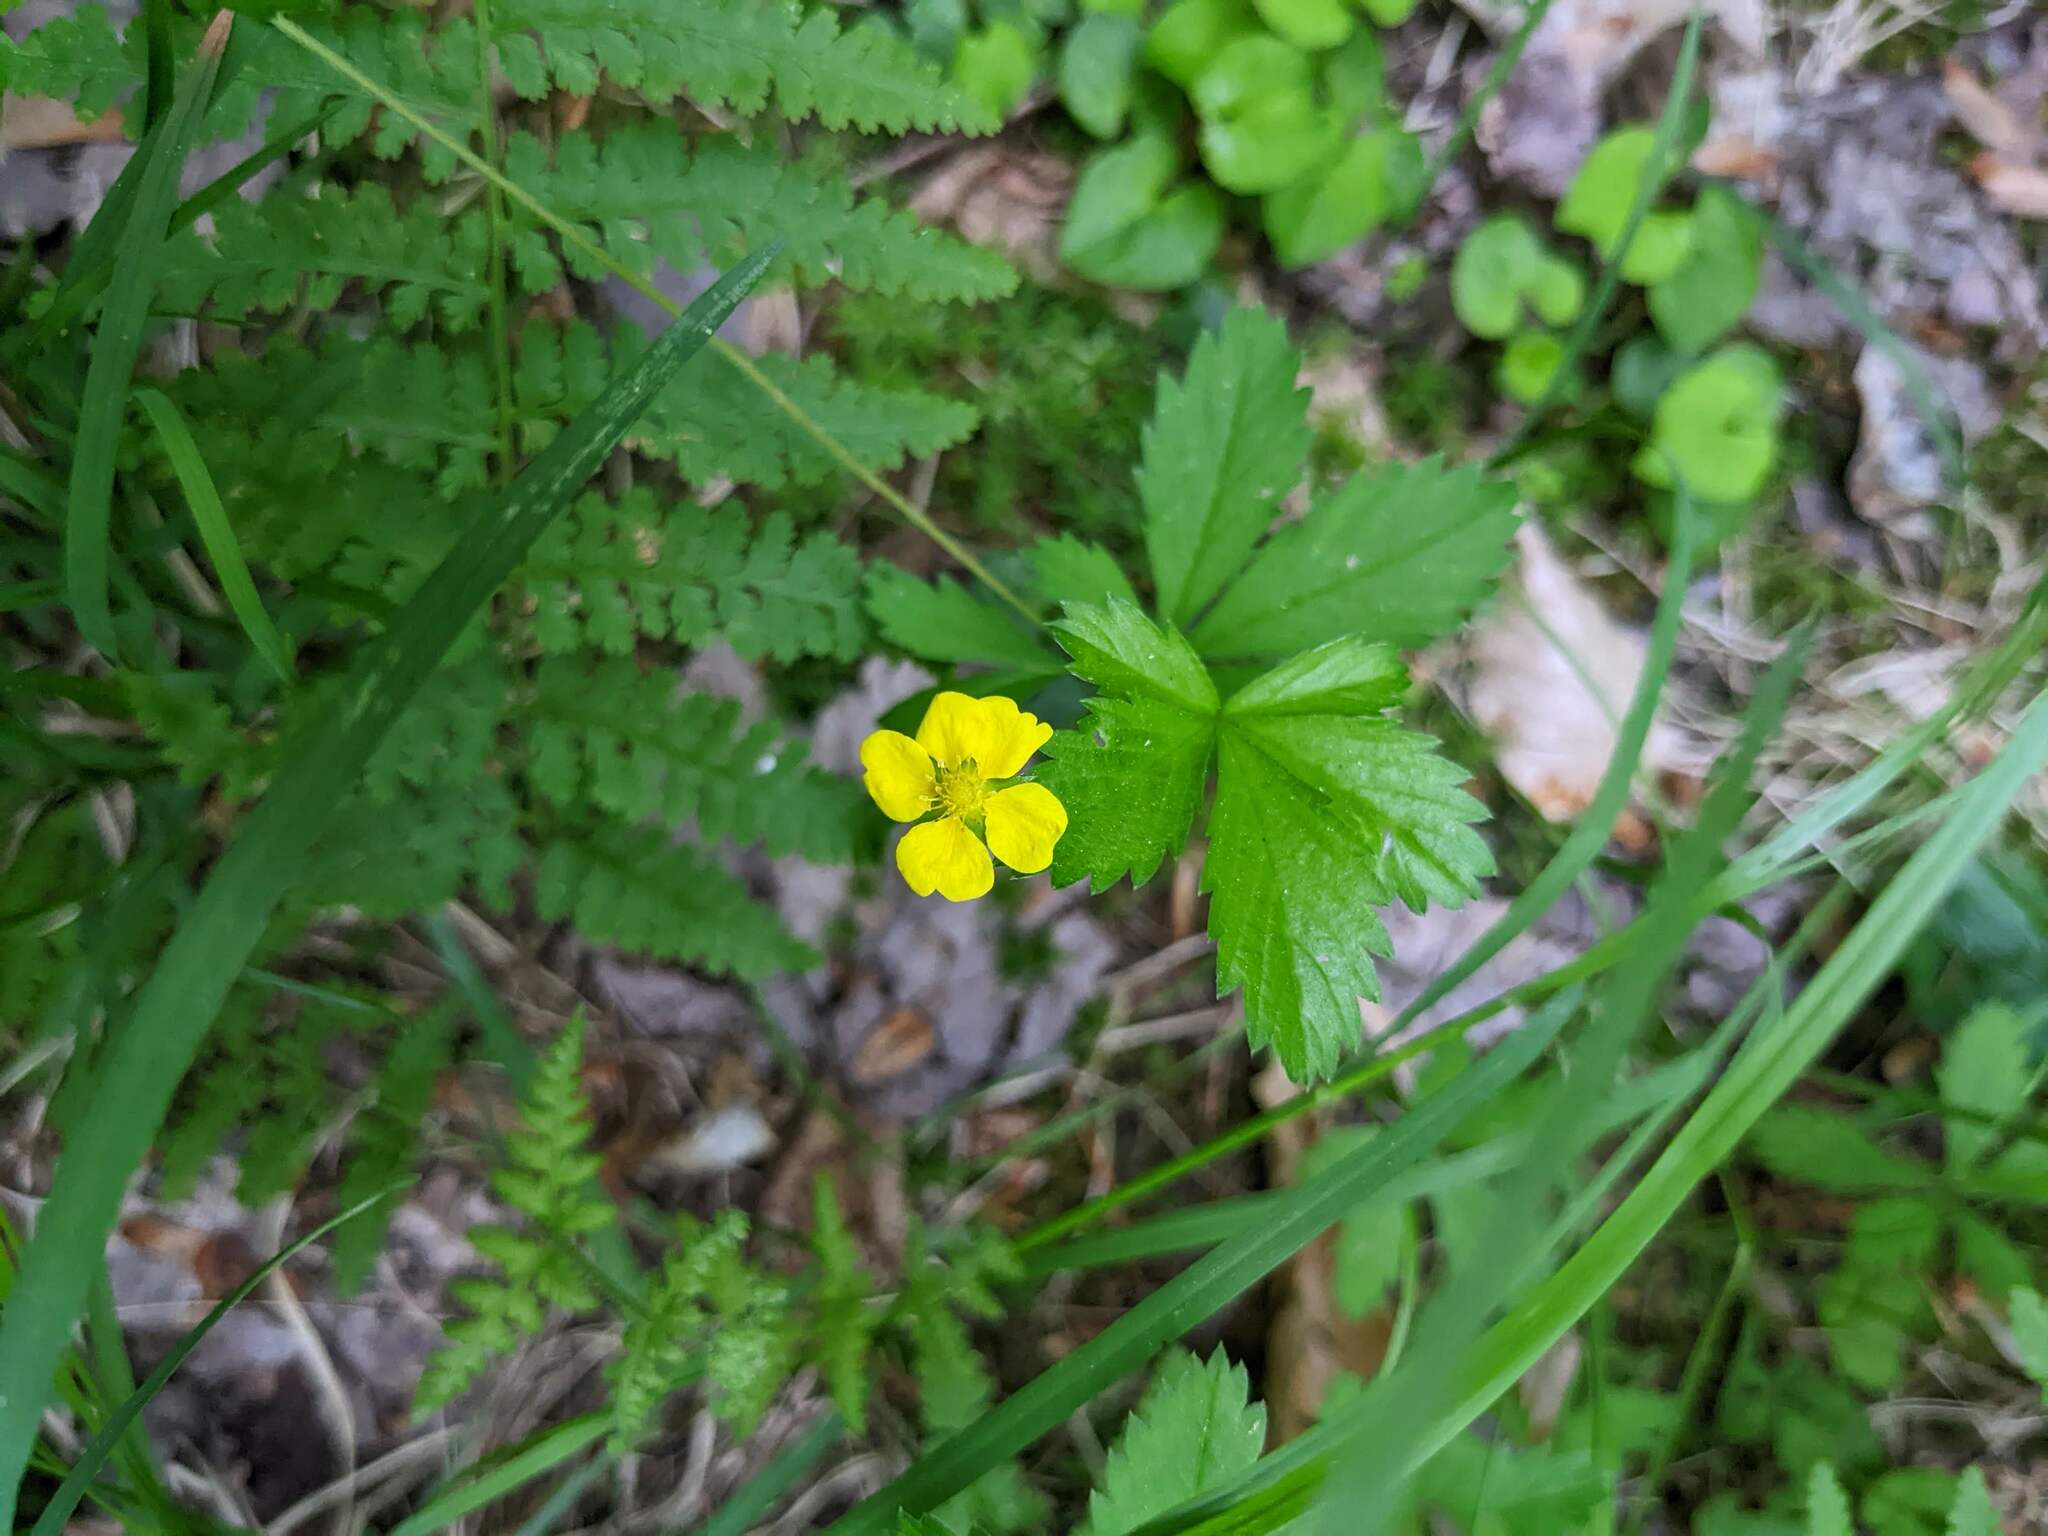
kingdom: Plantae
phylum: Tracheophyta
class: Magnoliopsida
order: Rosales
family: Rosaceae
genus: Potentilla
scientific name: Potentilla simplex
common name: Old field cinquefoil
